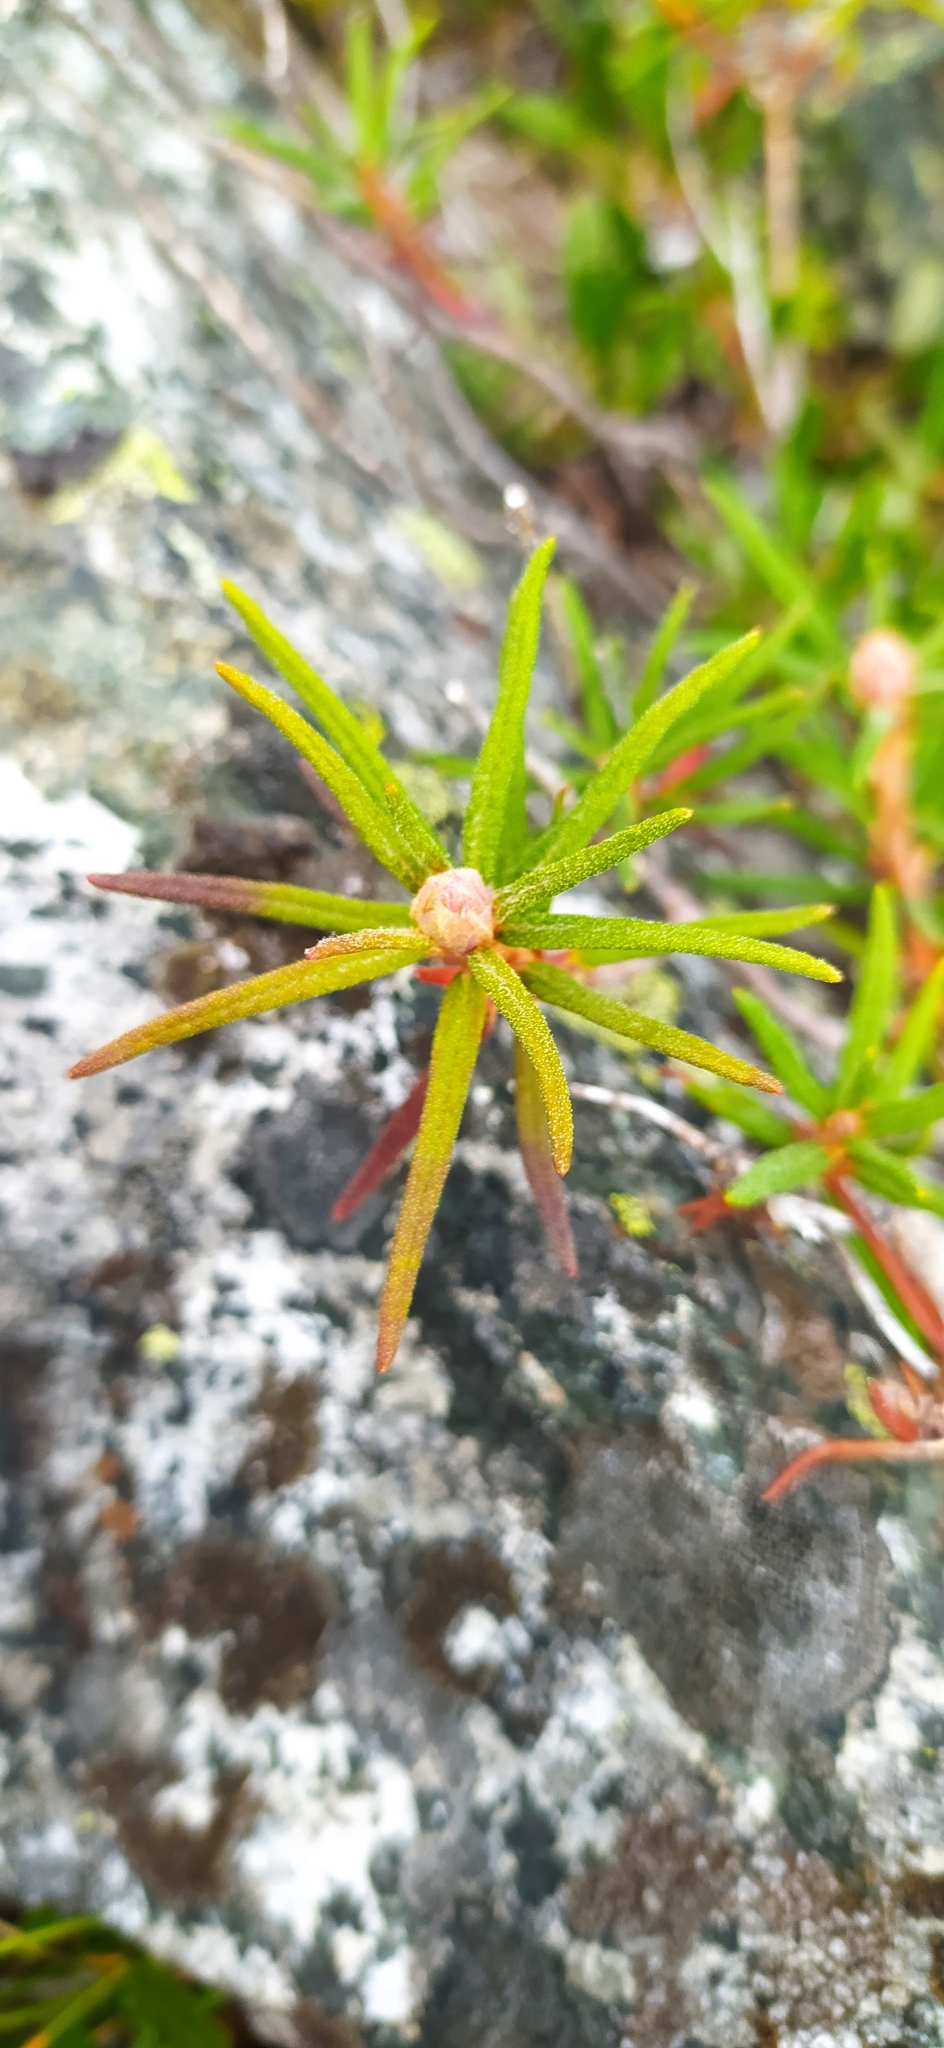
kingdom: Plantae
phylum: Tracheophyta
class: Magnoliopsida
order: Ericales
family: Ericaceae
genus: Rhododendron
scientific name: Rhododendron tomentosum
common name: Marsh labrador tea
